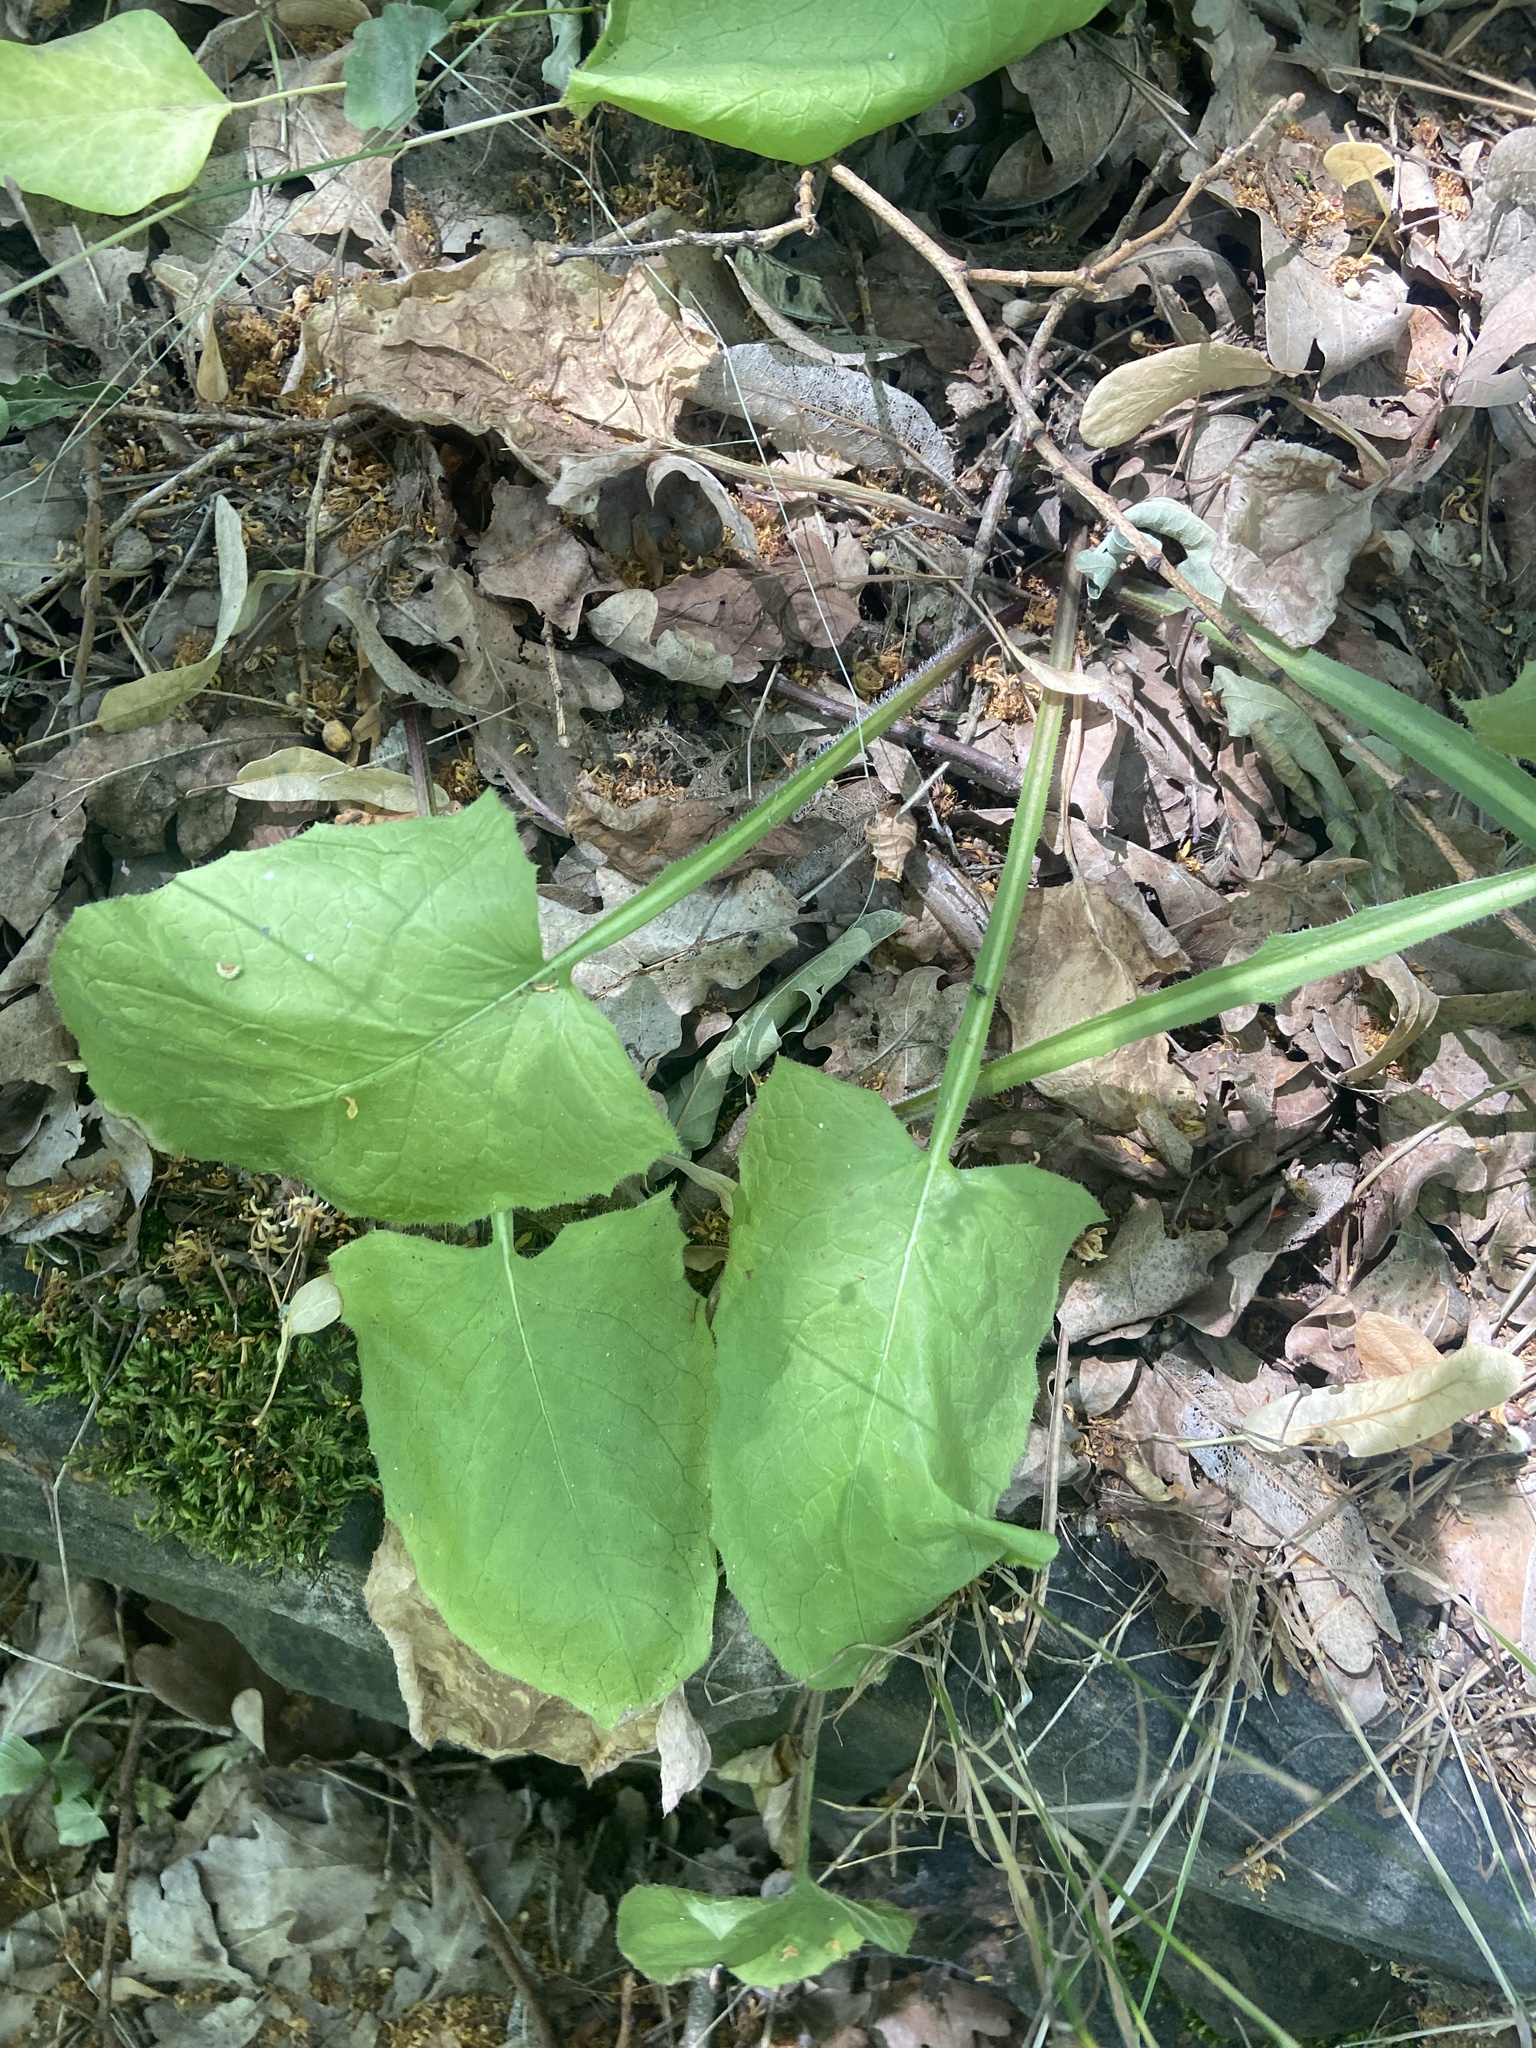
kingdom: Plantae
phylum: Tracheophyta
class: Magnoliopsida
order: Asterales
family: Asteraceae
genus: Lactuca
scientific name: Lactuca macrophylla
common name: Common blue-sow-thistle
